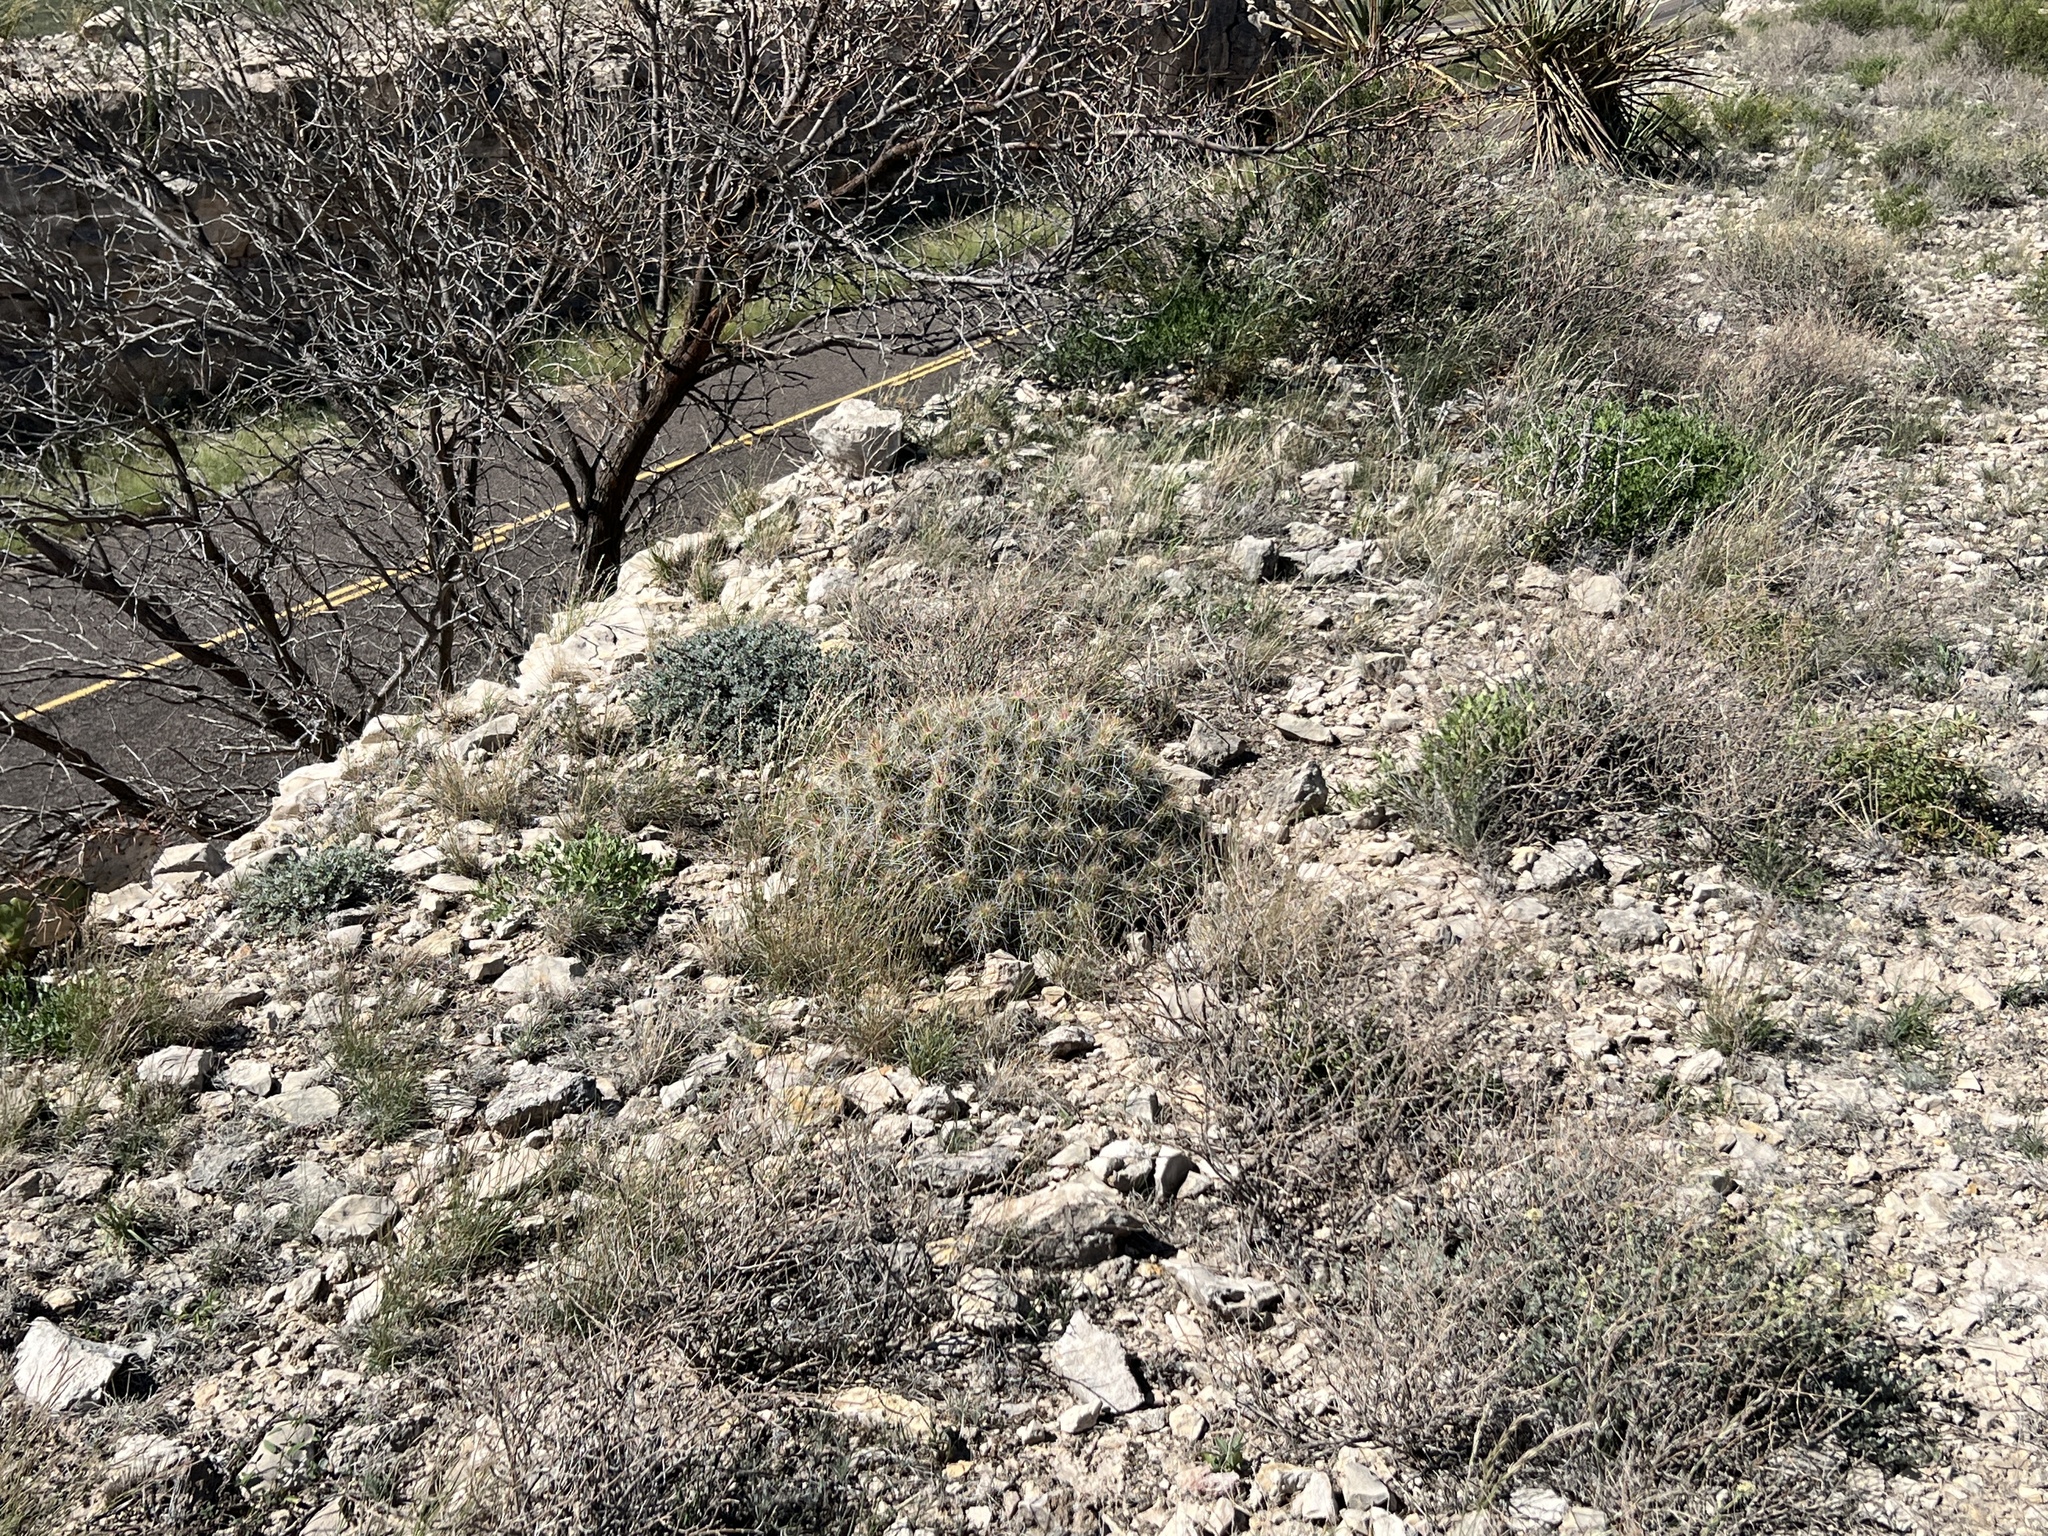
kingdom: Plantae
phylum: Tracheophyta
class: Magnoliopsida
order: Caryophyllales
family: Cactaceae
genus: Echinocereus
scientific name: Echinocereus stramineus
